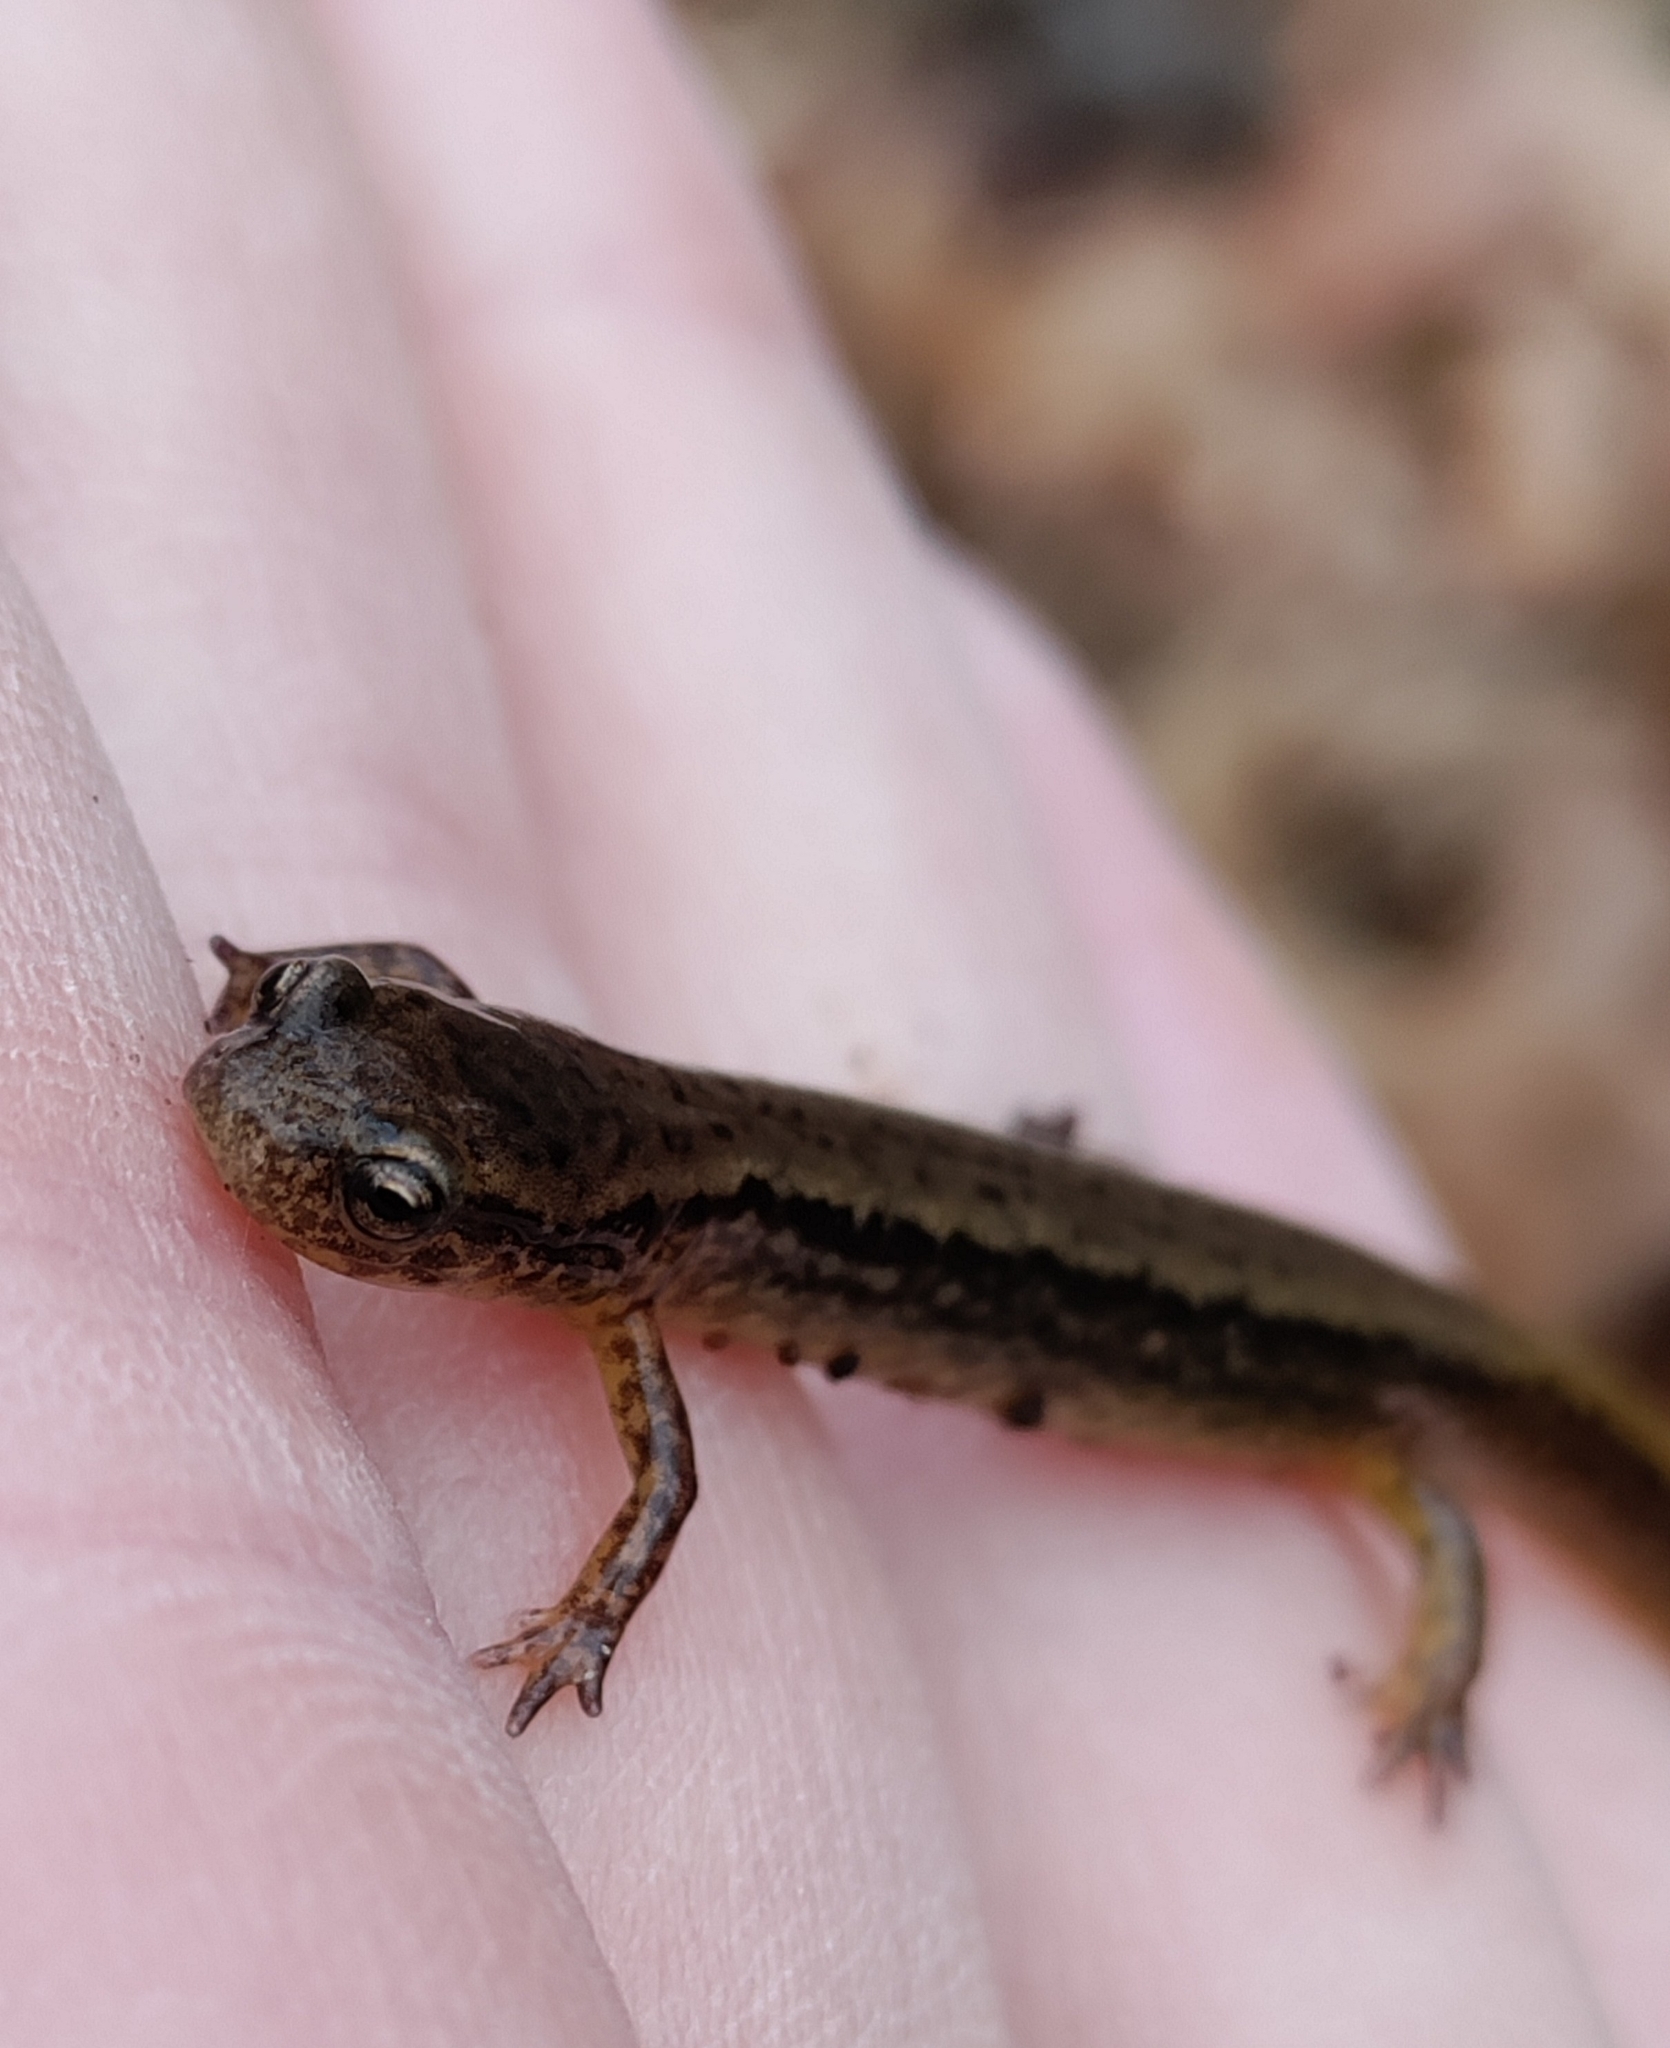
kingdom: Animalia
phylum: Chordata
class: Amphibia
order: Caudata
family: Plethodontidae
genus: Eurycea
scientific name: Eurycea bislineata
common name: Northern two-lined salamander
